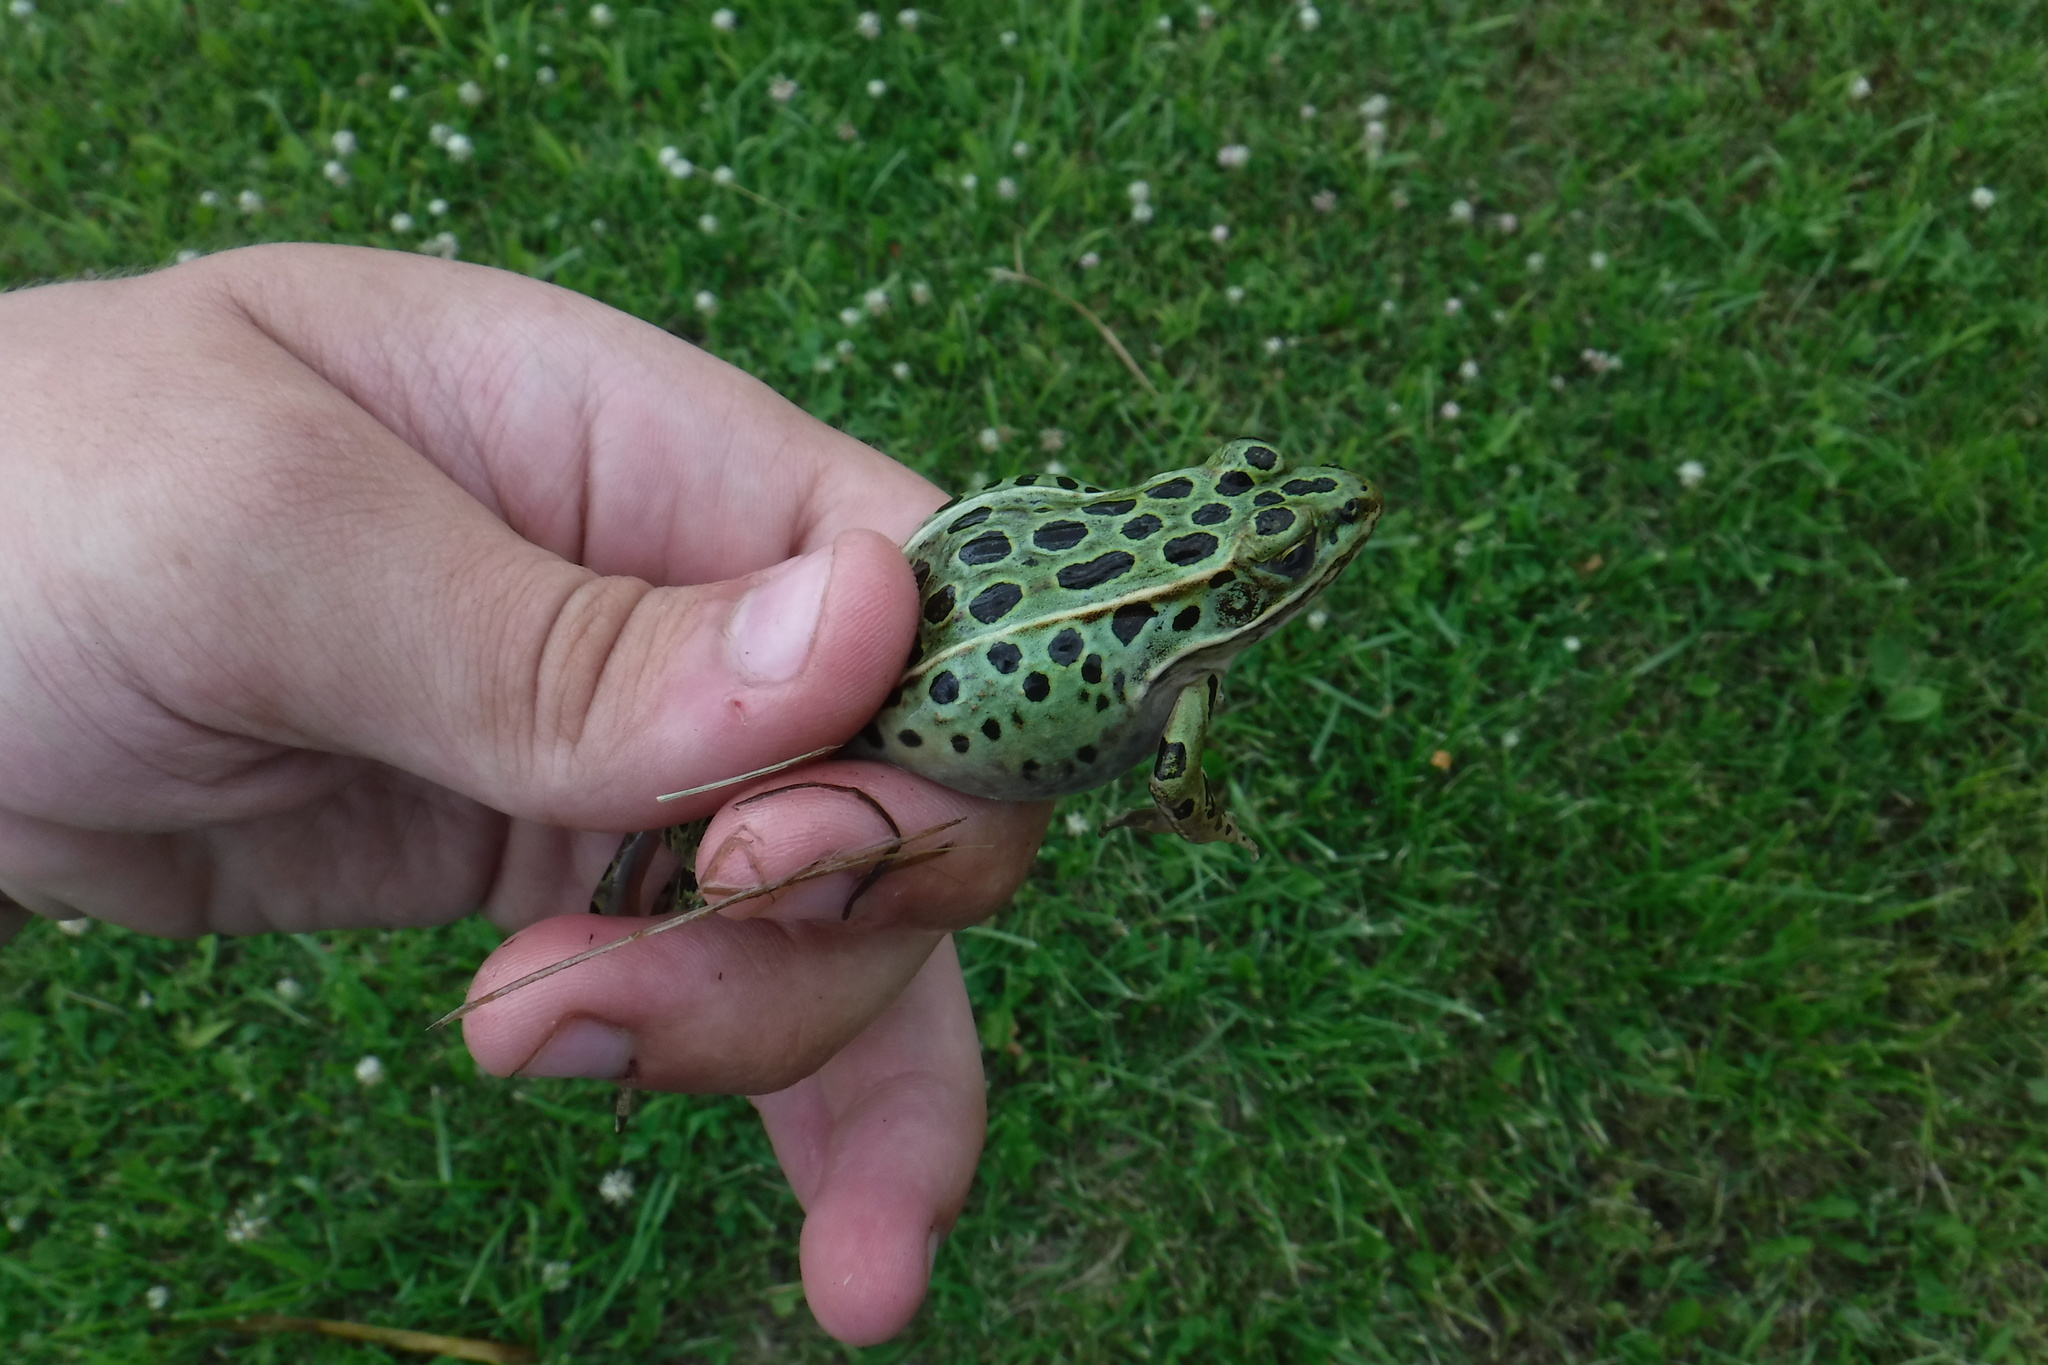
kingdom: Animalia
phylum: Chordata
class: Amphibia
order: Anura
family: Ranidae
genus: Lithobates
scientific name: Lithobates pipiens
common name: Northern leopard frog
